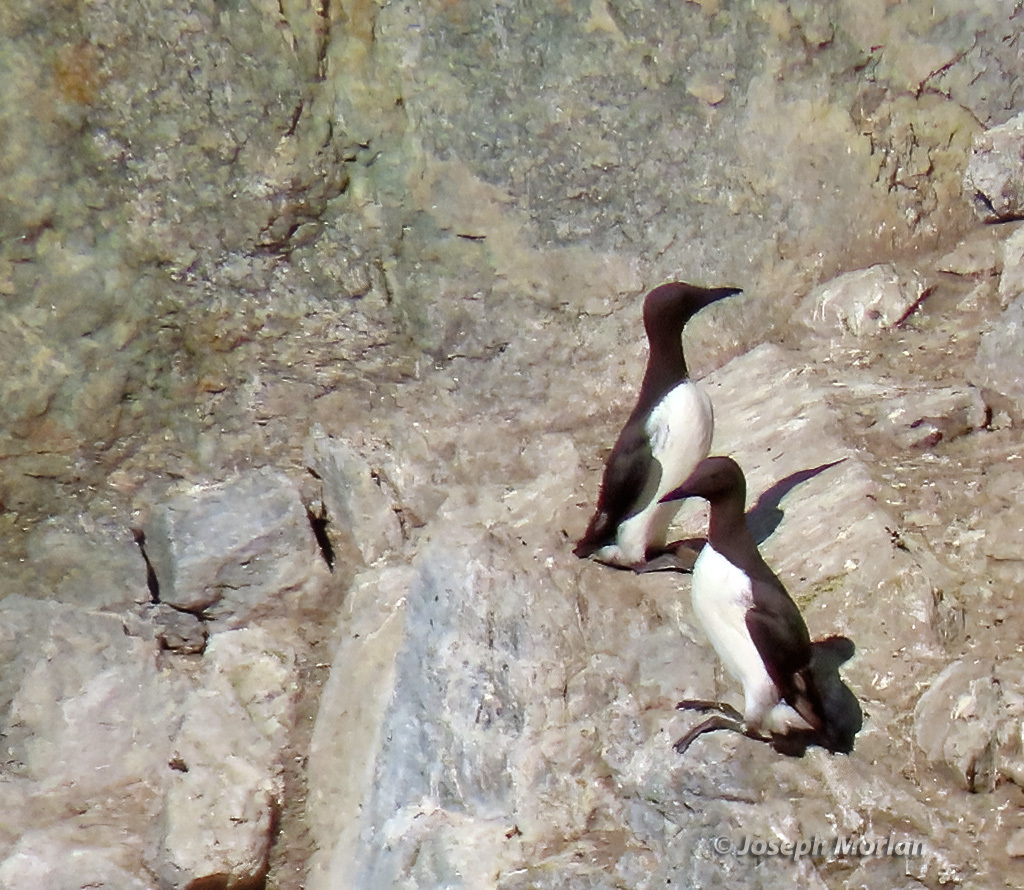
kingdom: Animalia
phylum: Chordata
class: Aves
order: Charadriiformes
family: Alcidae
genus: Uria
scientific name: Uria aalge
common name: Common murre
